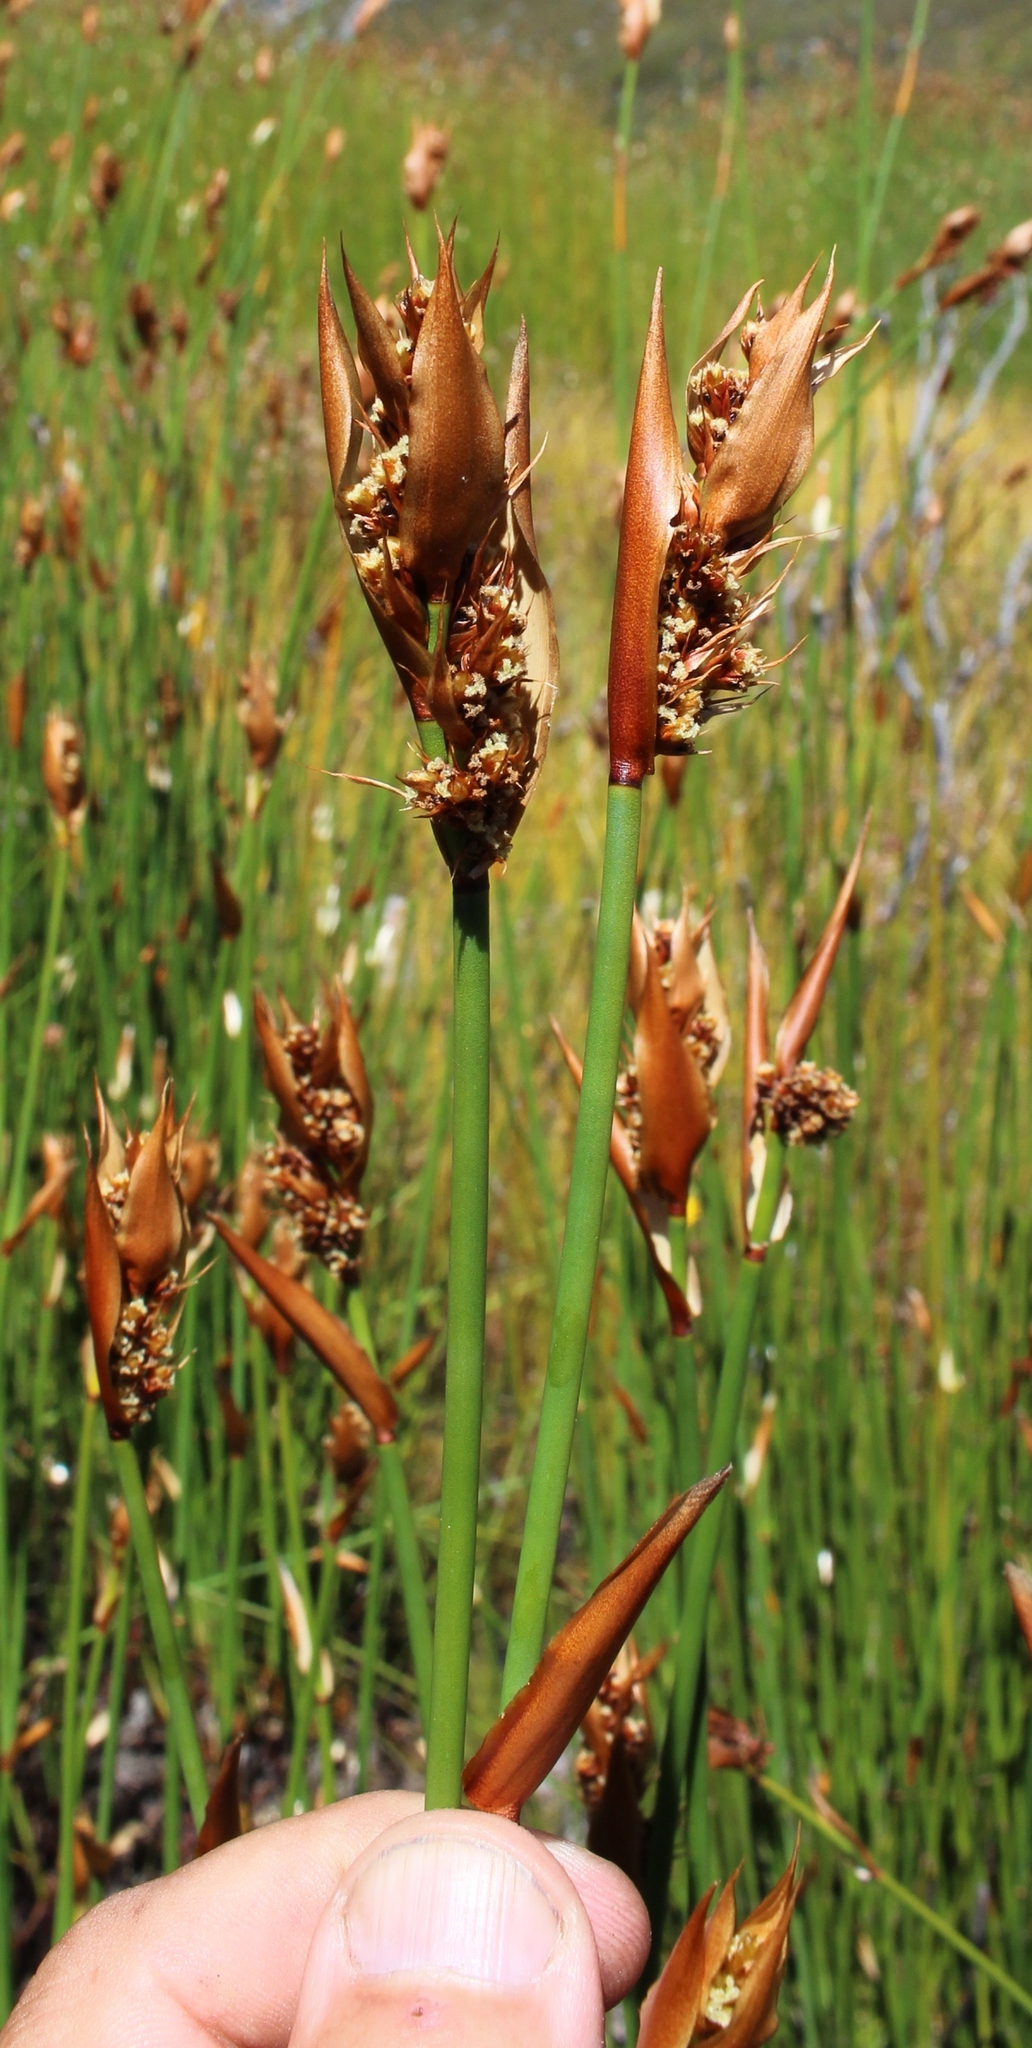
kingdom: Plantae
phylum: Tracheophyta
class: Liliopsida
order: Poales
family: Restionaceae
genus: Elegia
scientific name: Elegia thyrsifera
